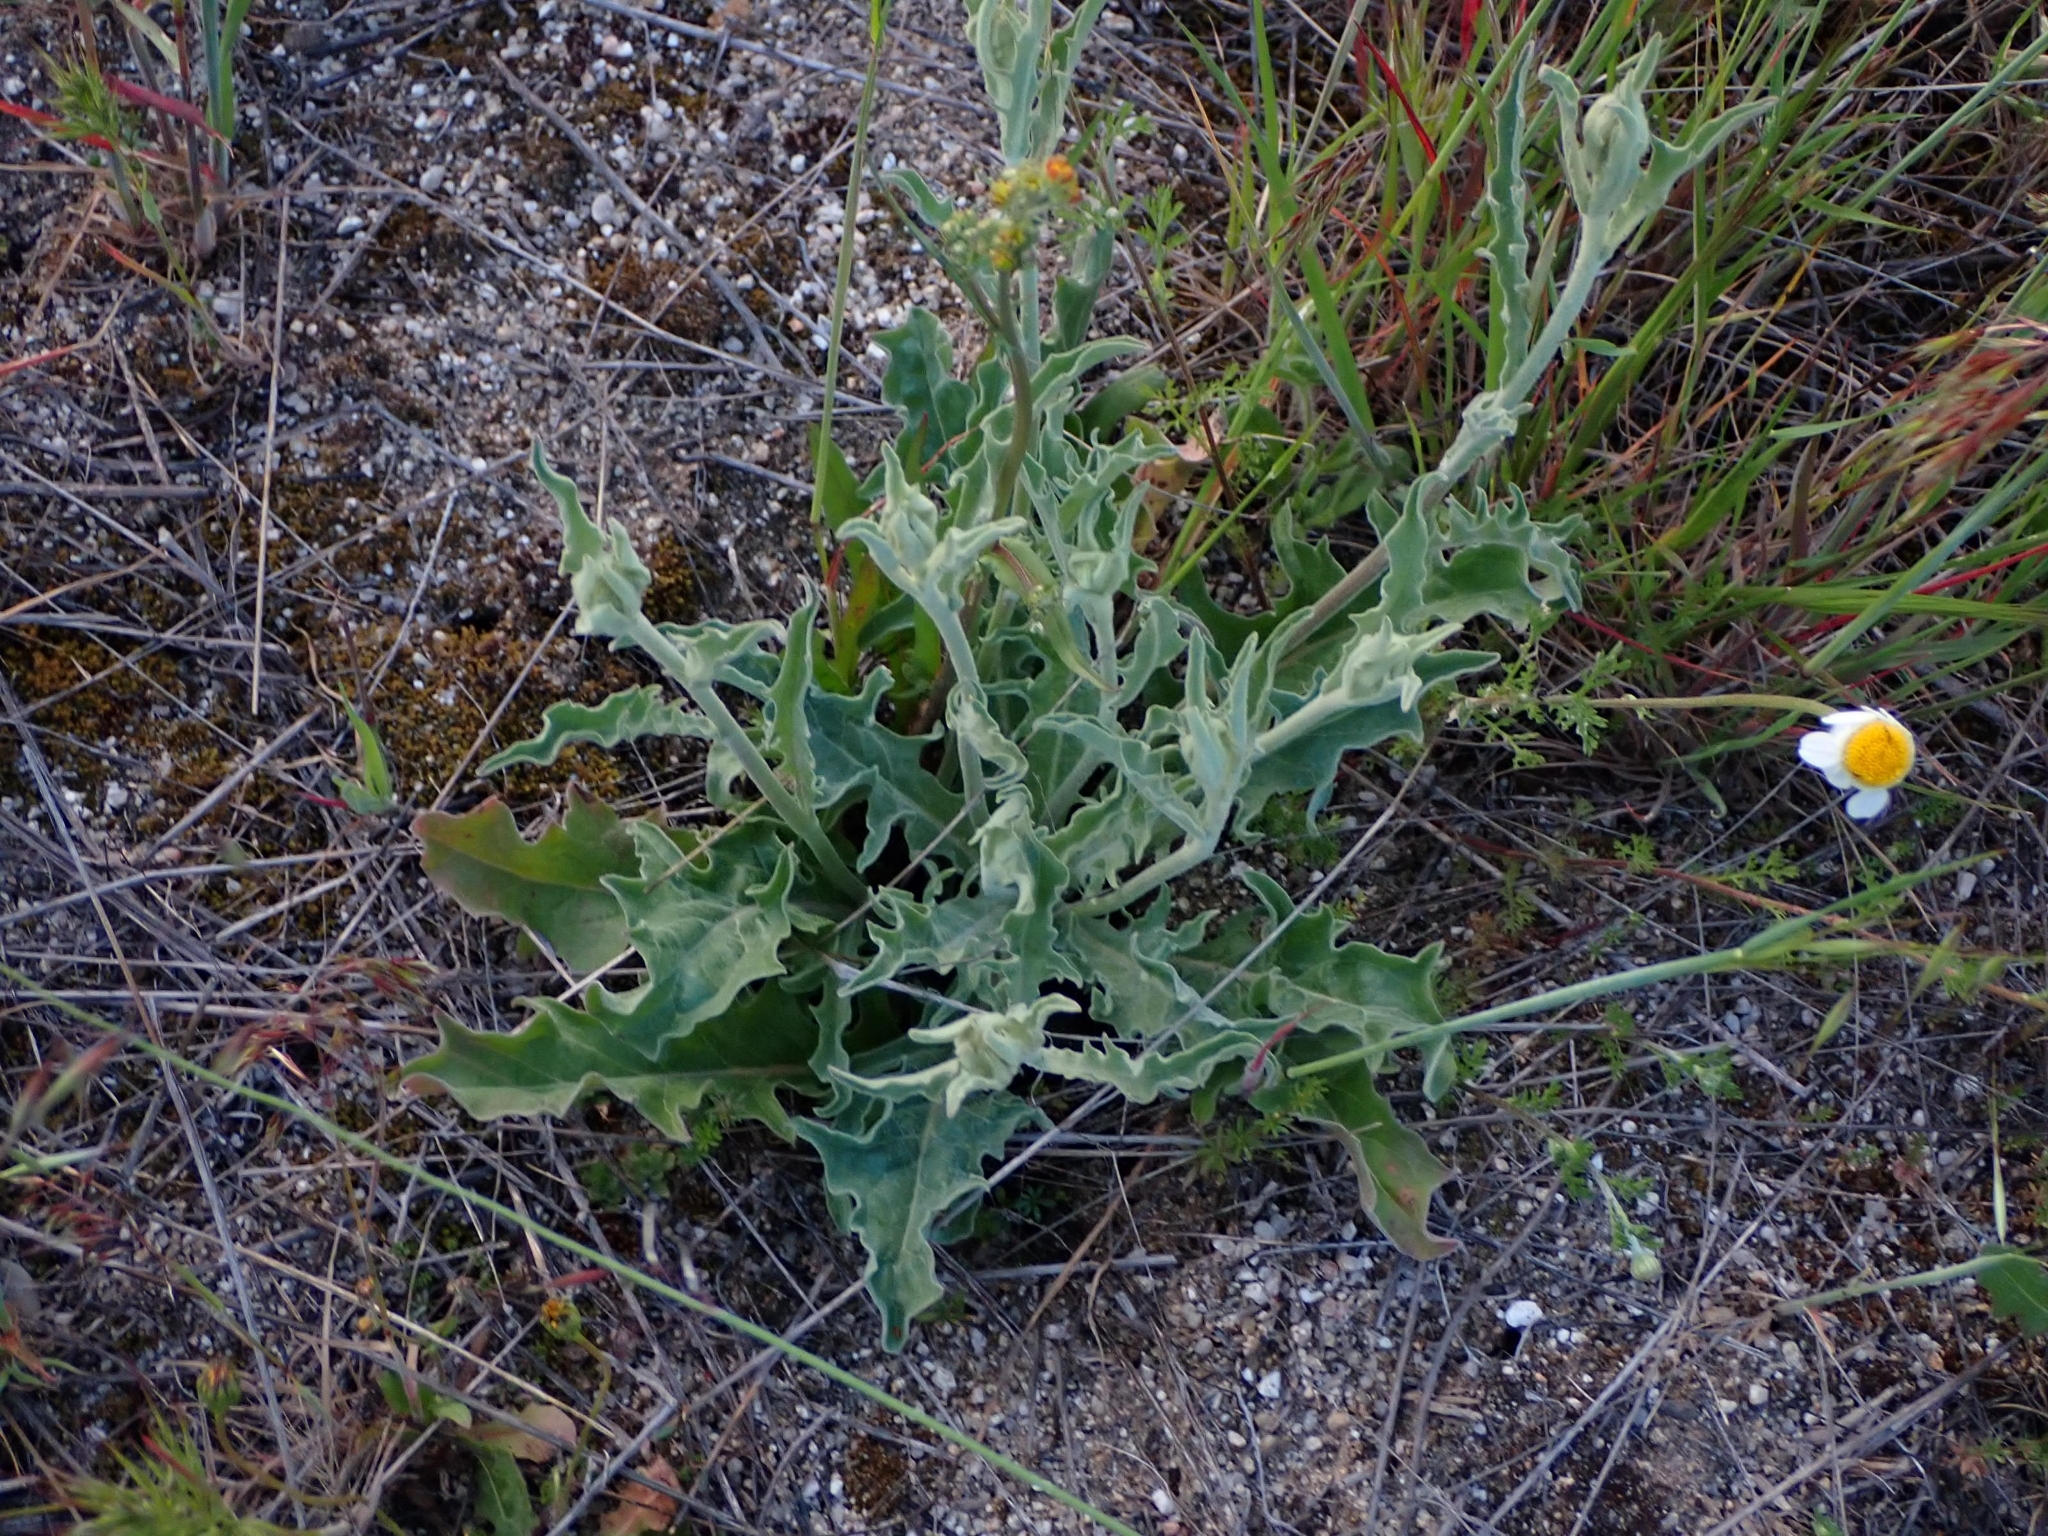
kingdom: Plantae
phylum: Tracheophyta
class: Magnoliopsida
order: Asterales
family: Asteraceae
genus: Andryala
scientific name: Andryala integrifolia
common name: Common andryala
